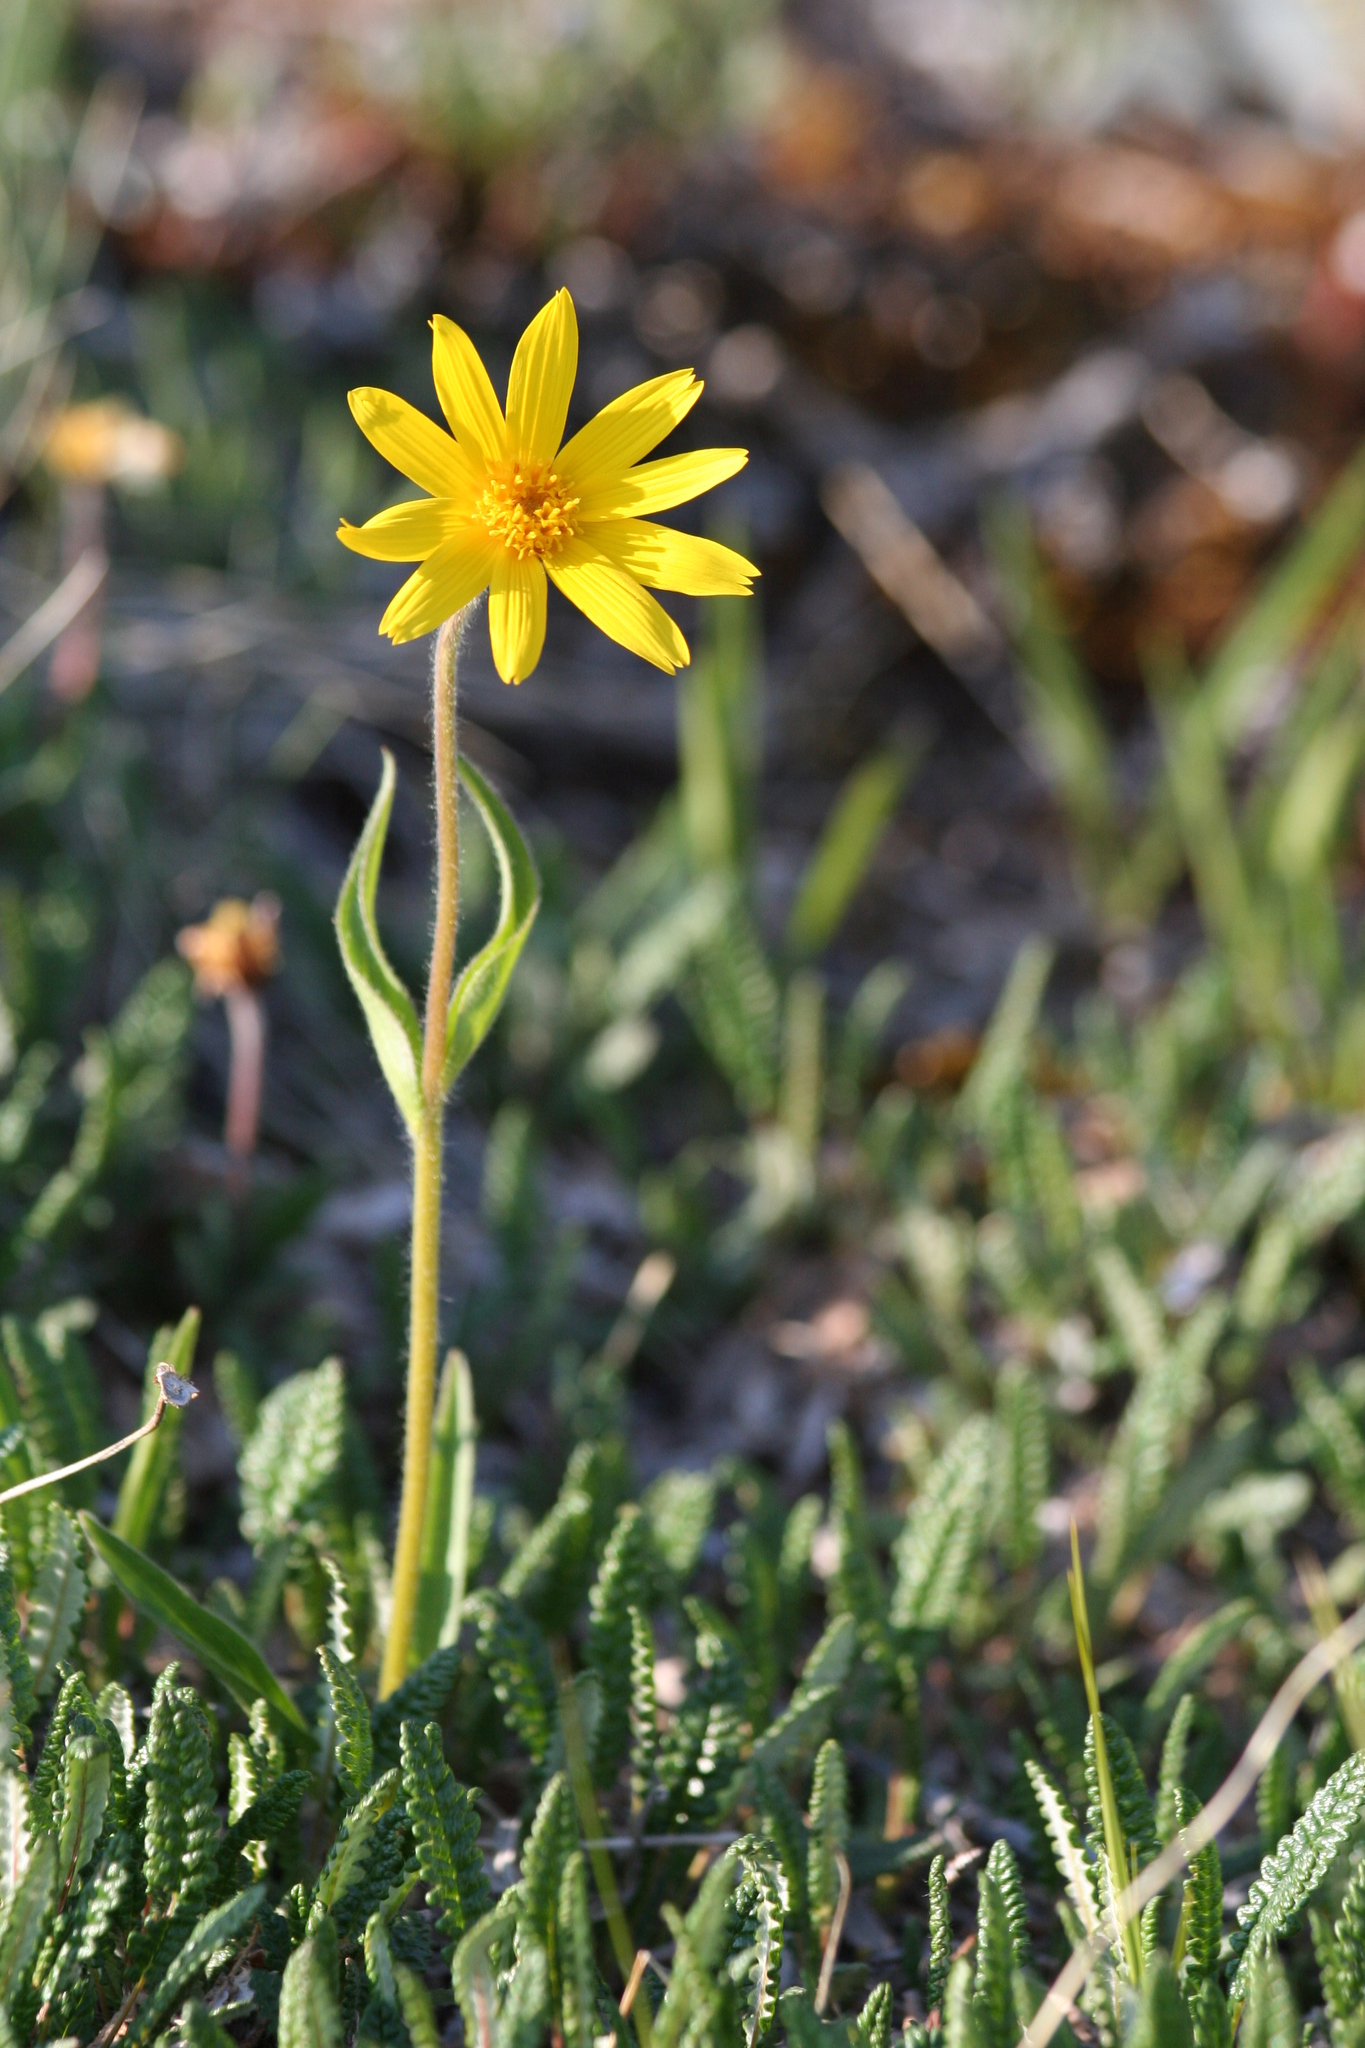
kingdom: Plantae
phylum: Tracheophyta
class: Magnoliopsida
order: Asterales
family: Asteraceae
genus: Arnica
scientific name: Arnica angustifolia
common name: Arctic arnica
